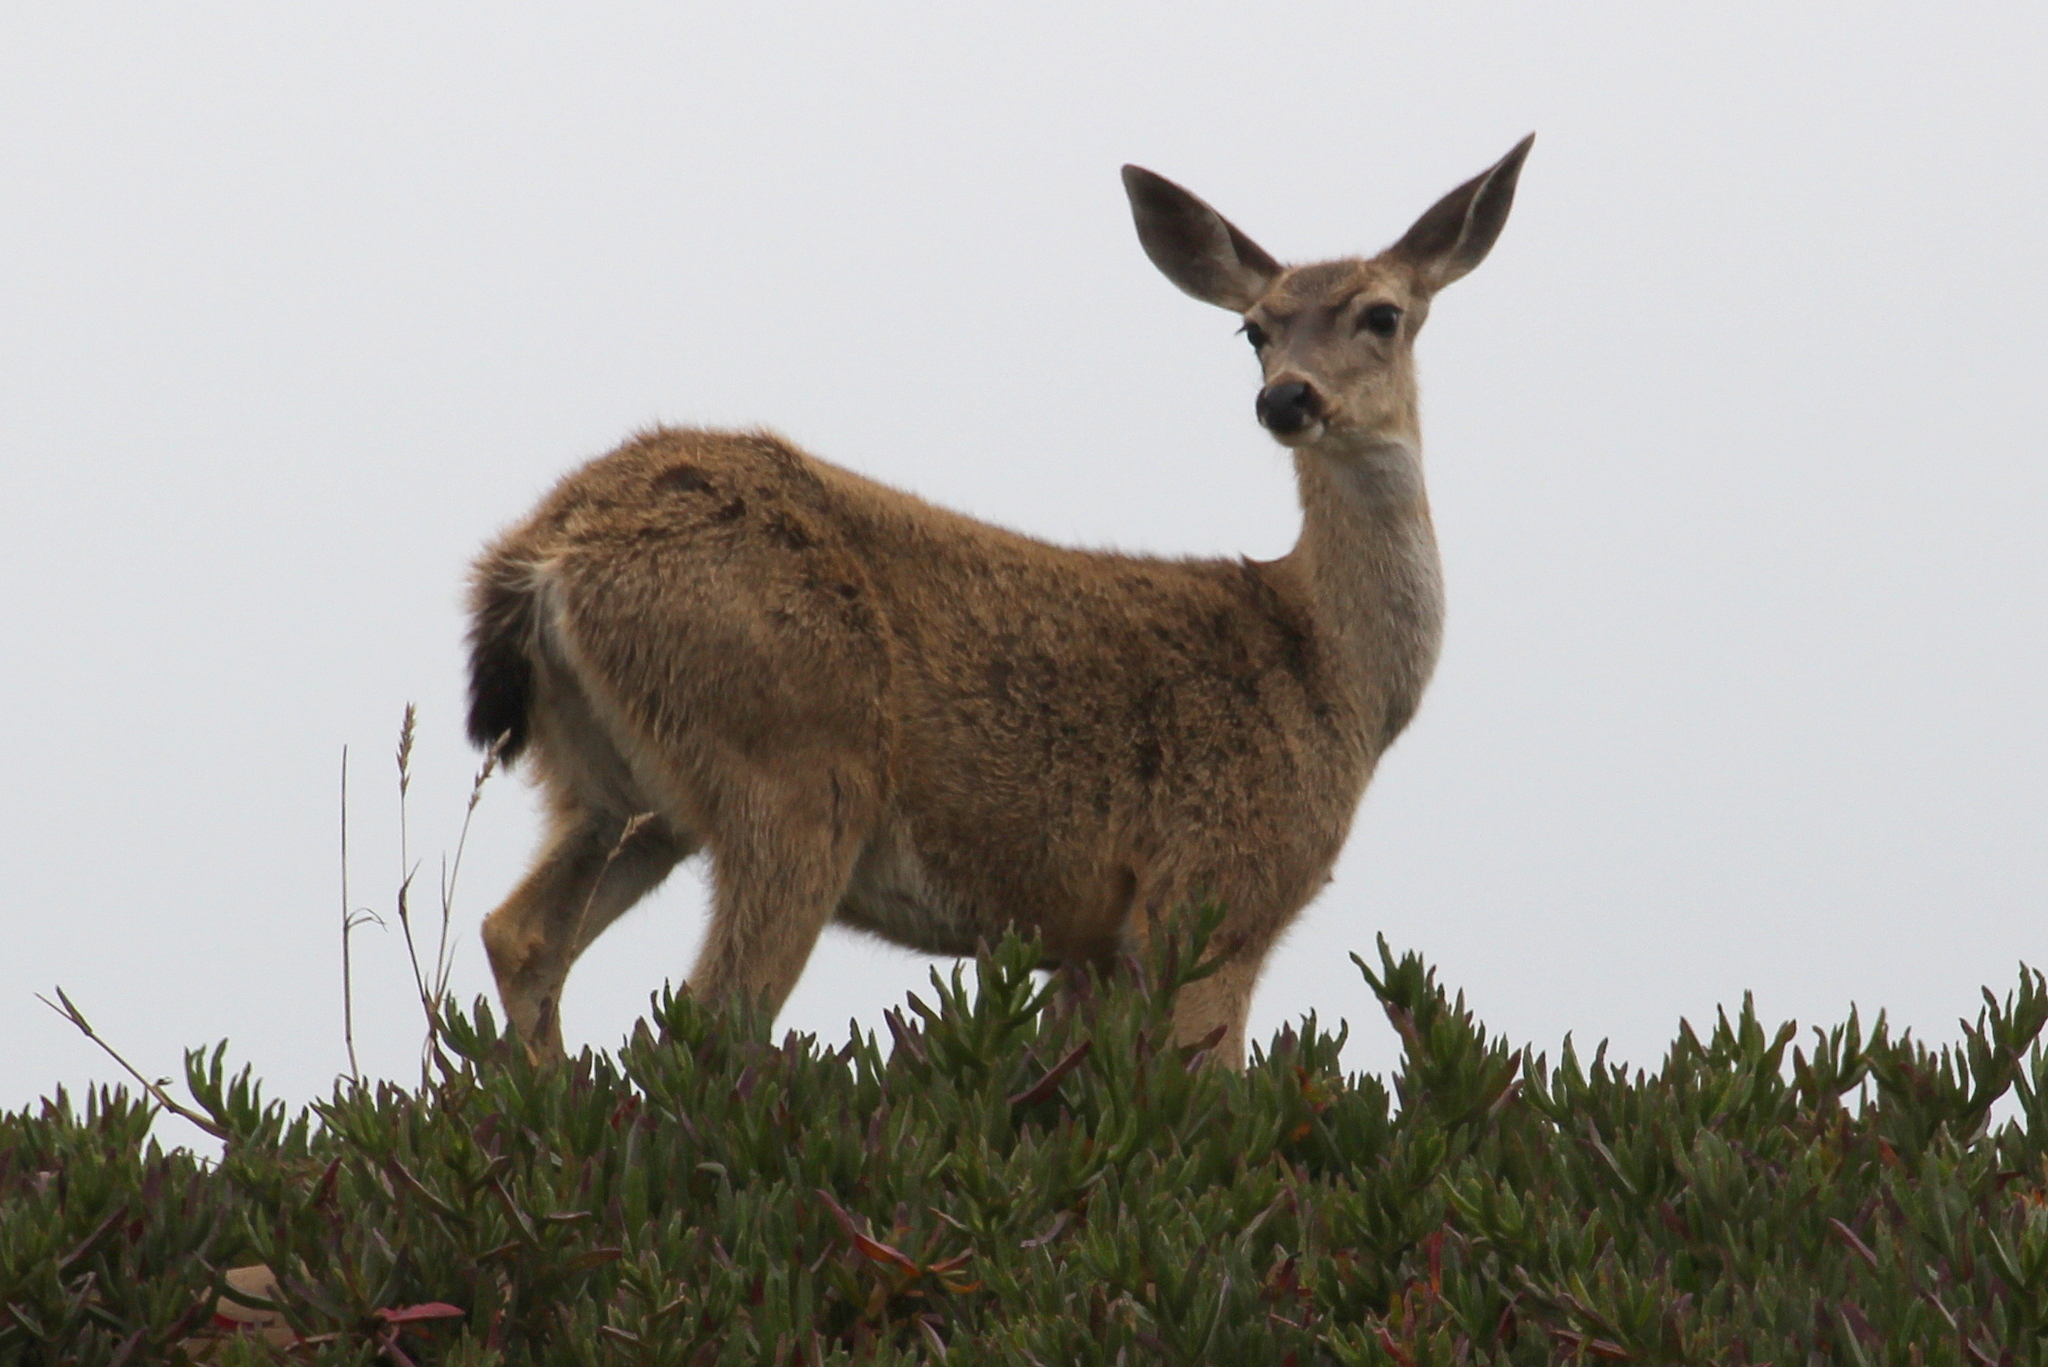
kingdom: Animalia
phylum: Chordata
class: Mammalia
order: Artiodactyla
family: Cervidae
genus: Odocoileus
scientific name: Odocoileus hemionus
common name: Mule deer
